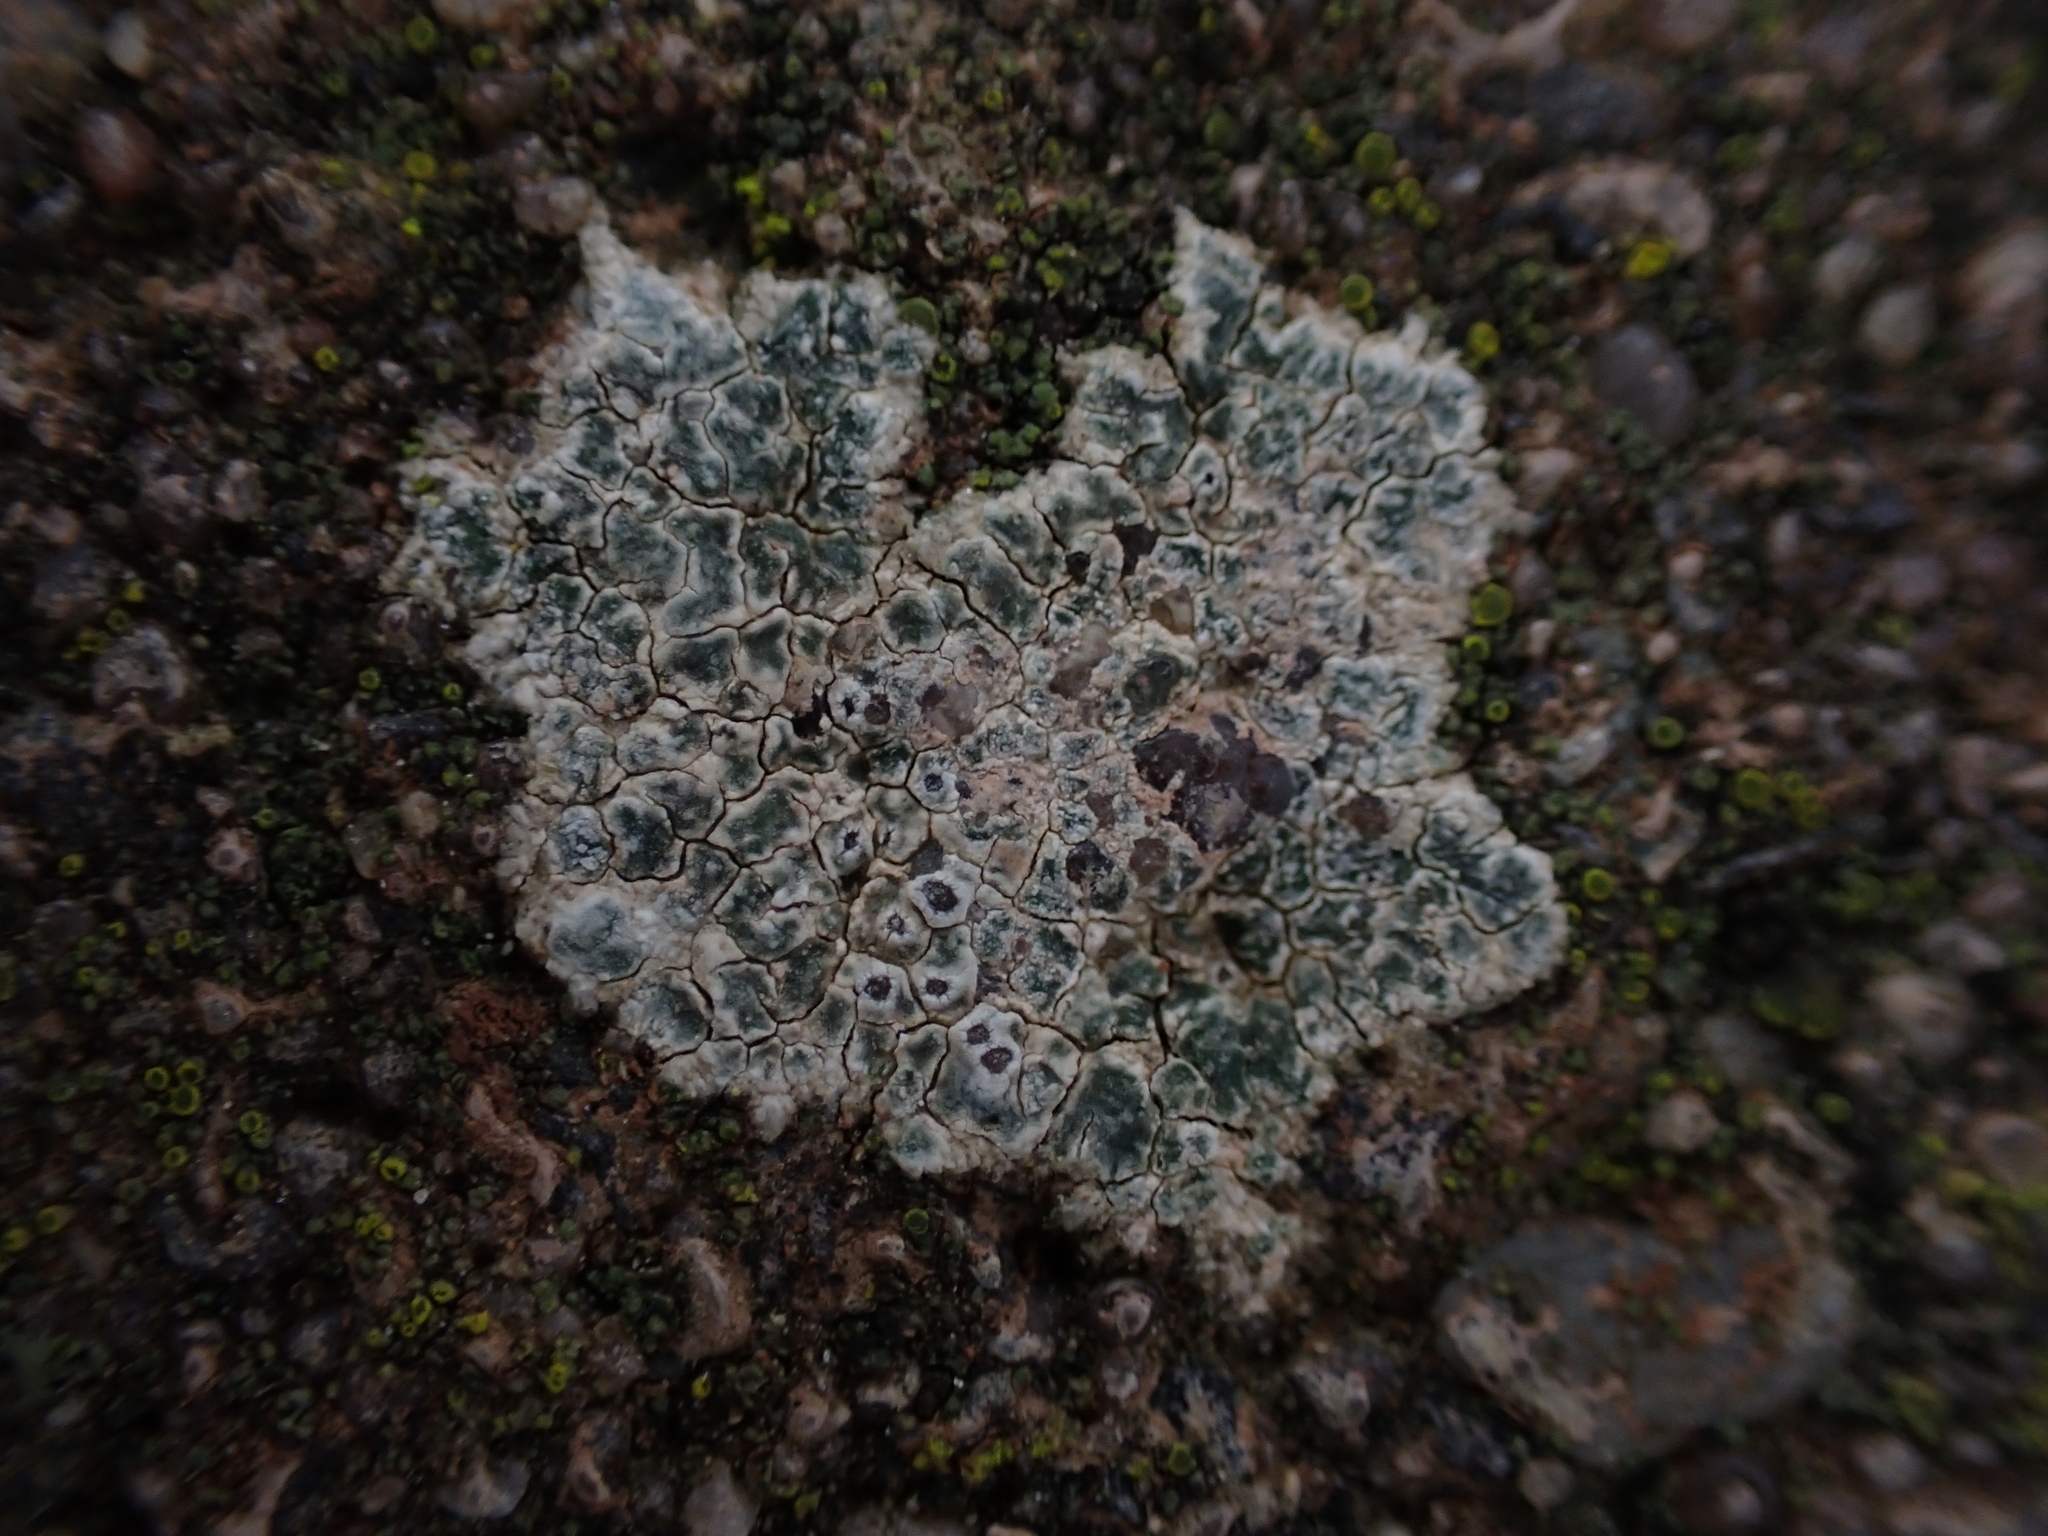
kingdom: Fungi
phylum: Ascomycota
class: Lecanoromycetes
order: Pertusariales
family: Megasporaceae
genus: Circinaria
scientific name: Circinaria contorta
